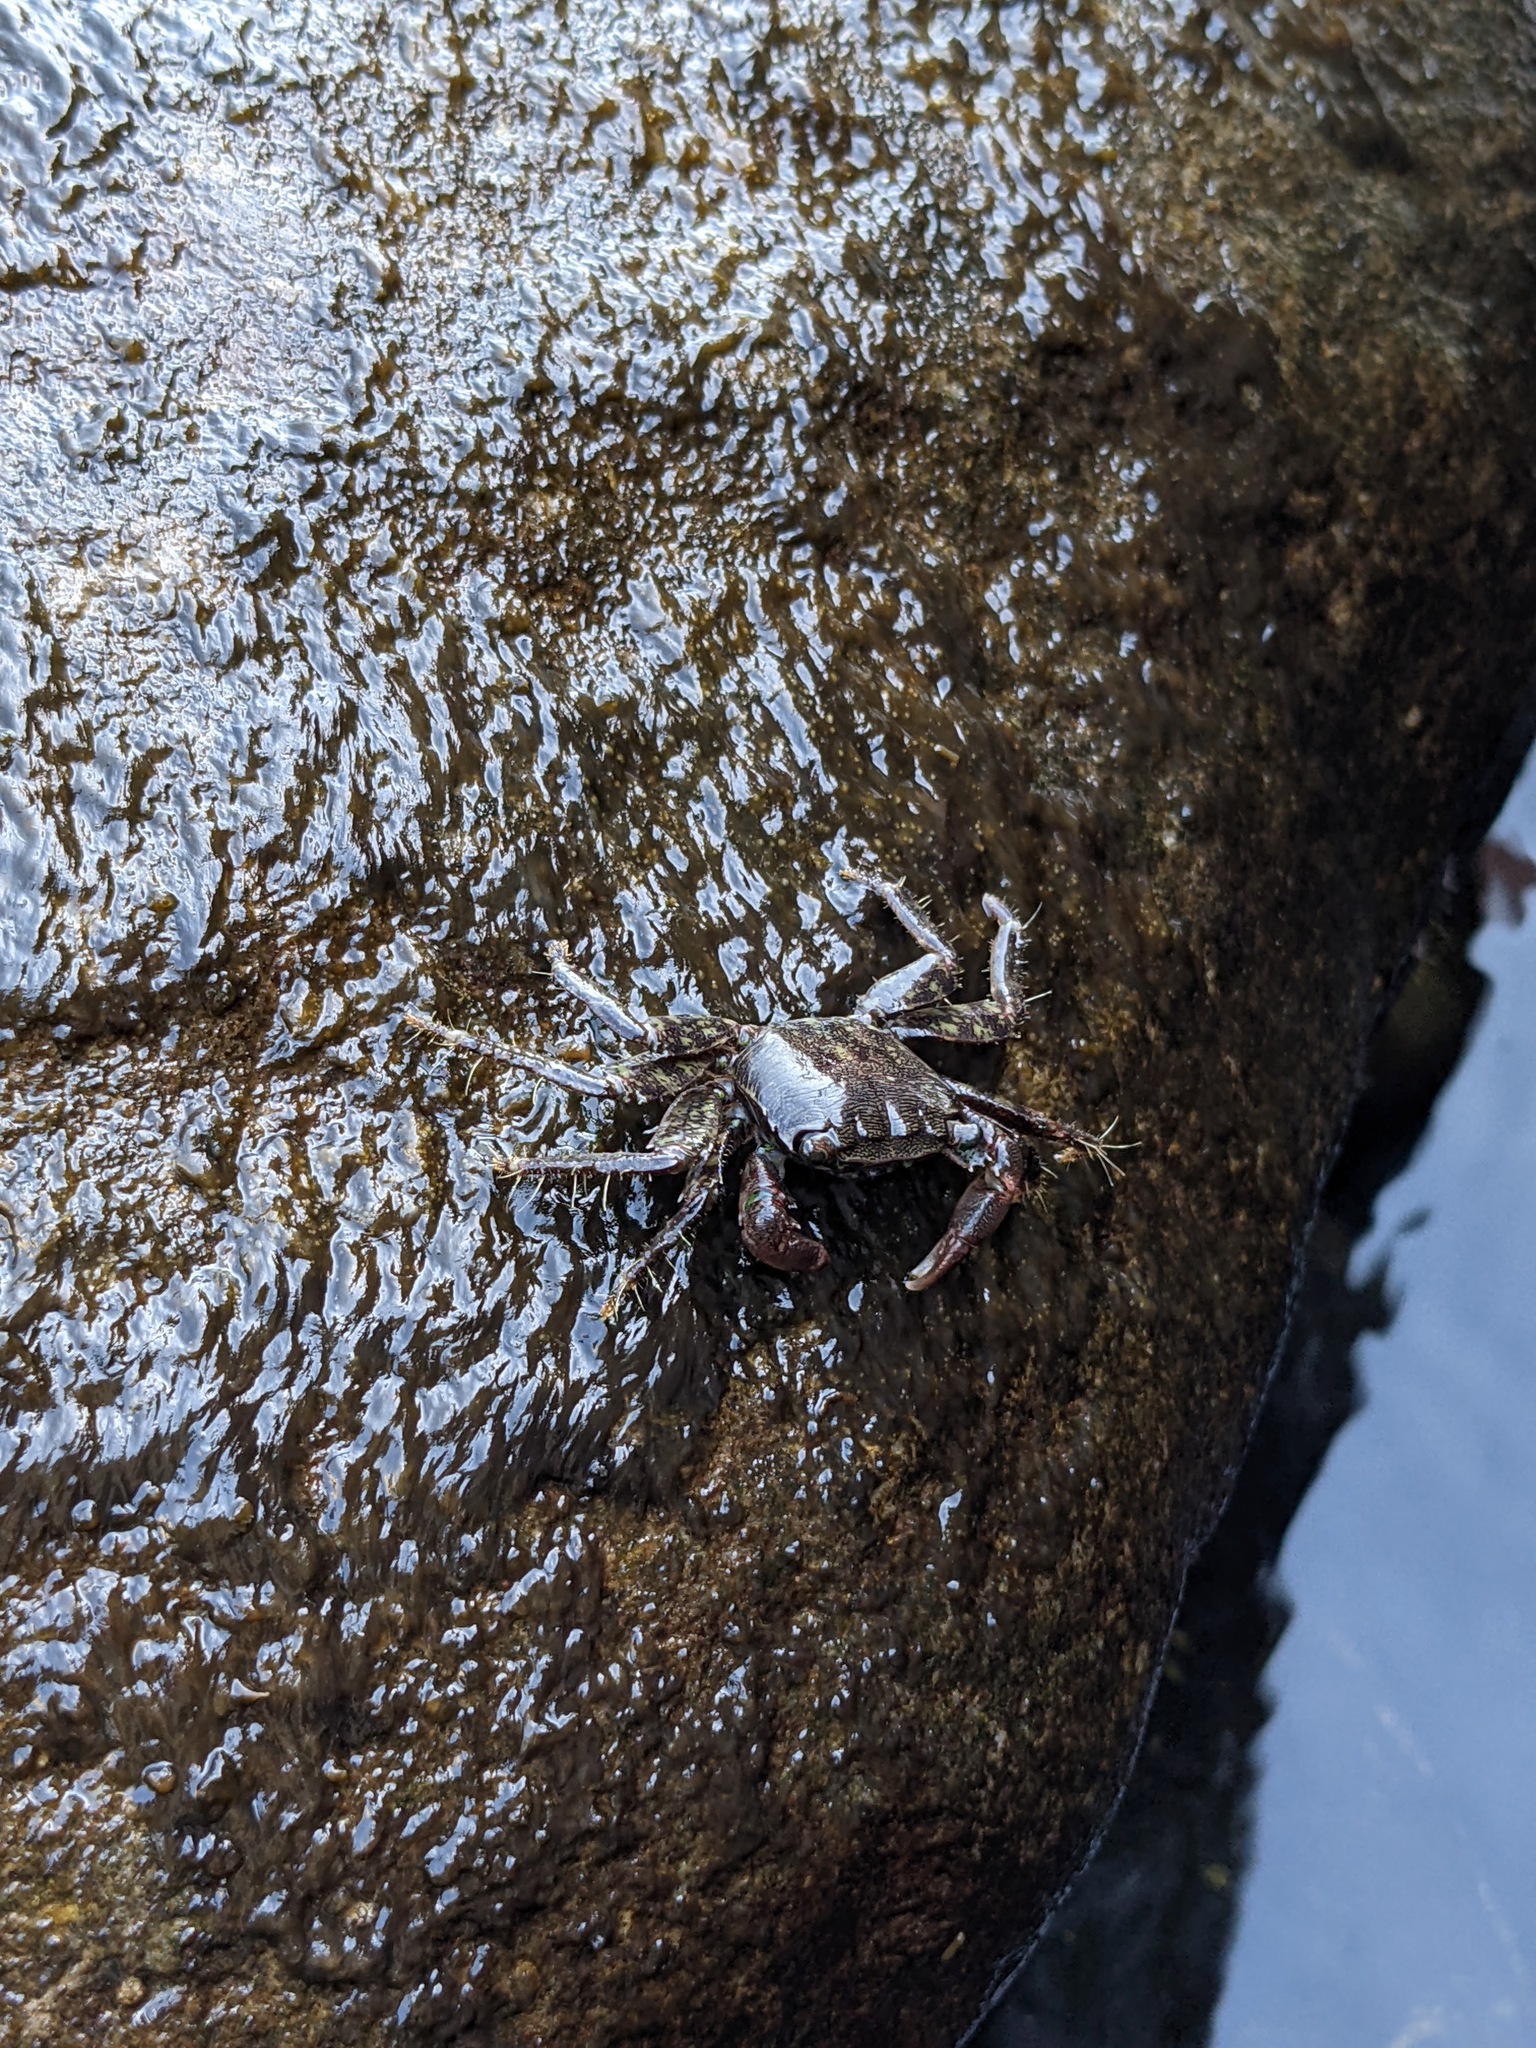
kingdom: Animalia
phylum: Arthropoda
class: Malacostraca
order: Decapoda
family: Grapsidae
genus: Pachygrapsus
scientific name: Pachygrapsus marmoratus
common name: Marbled rock crab
